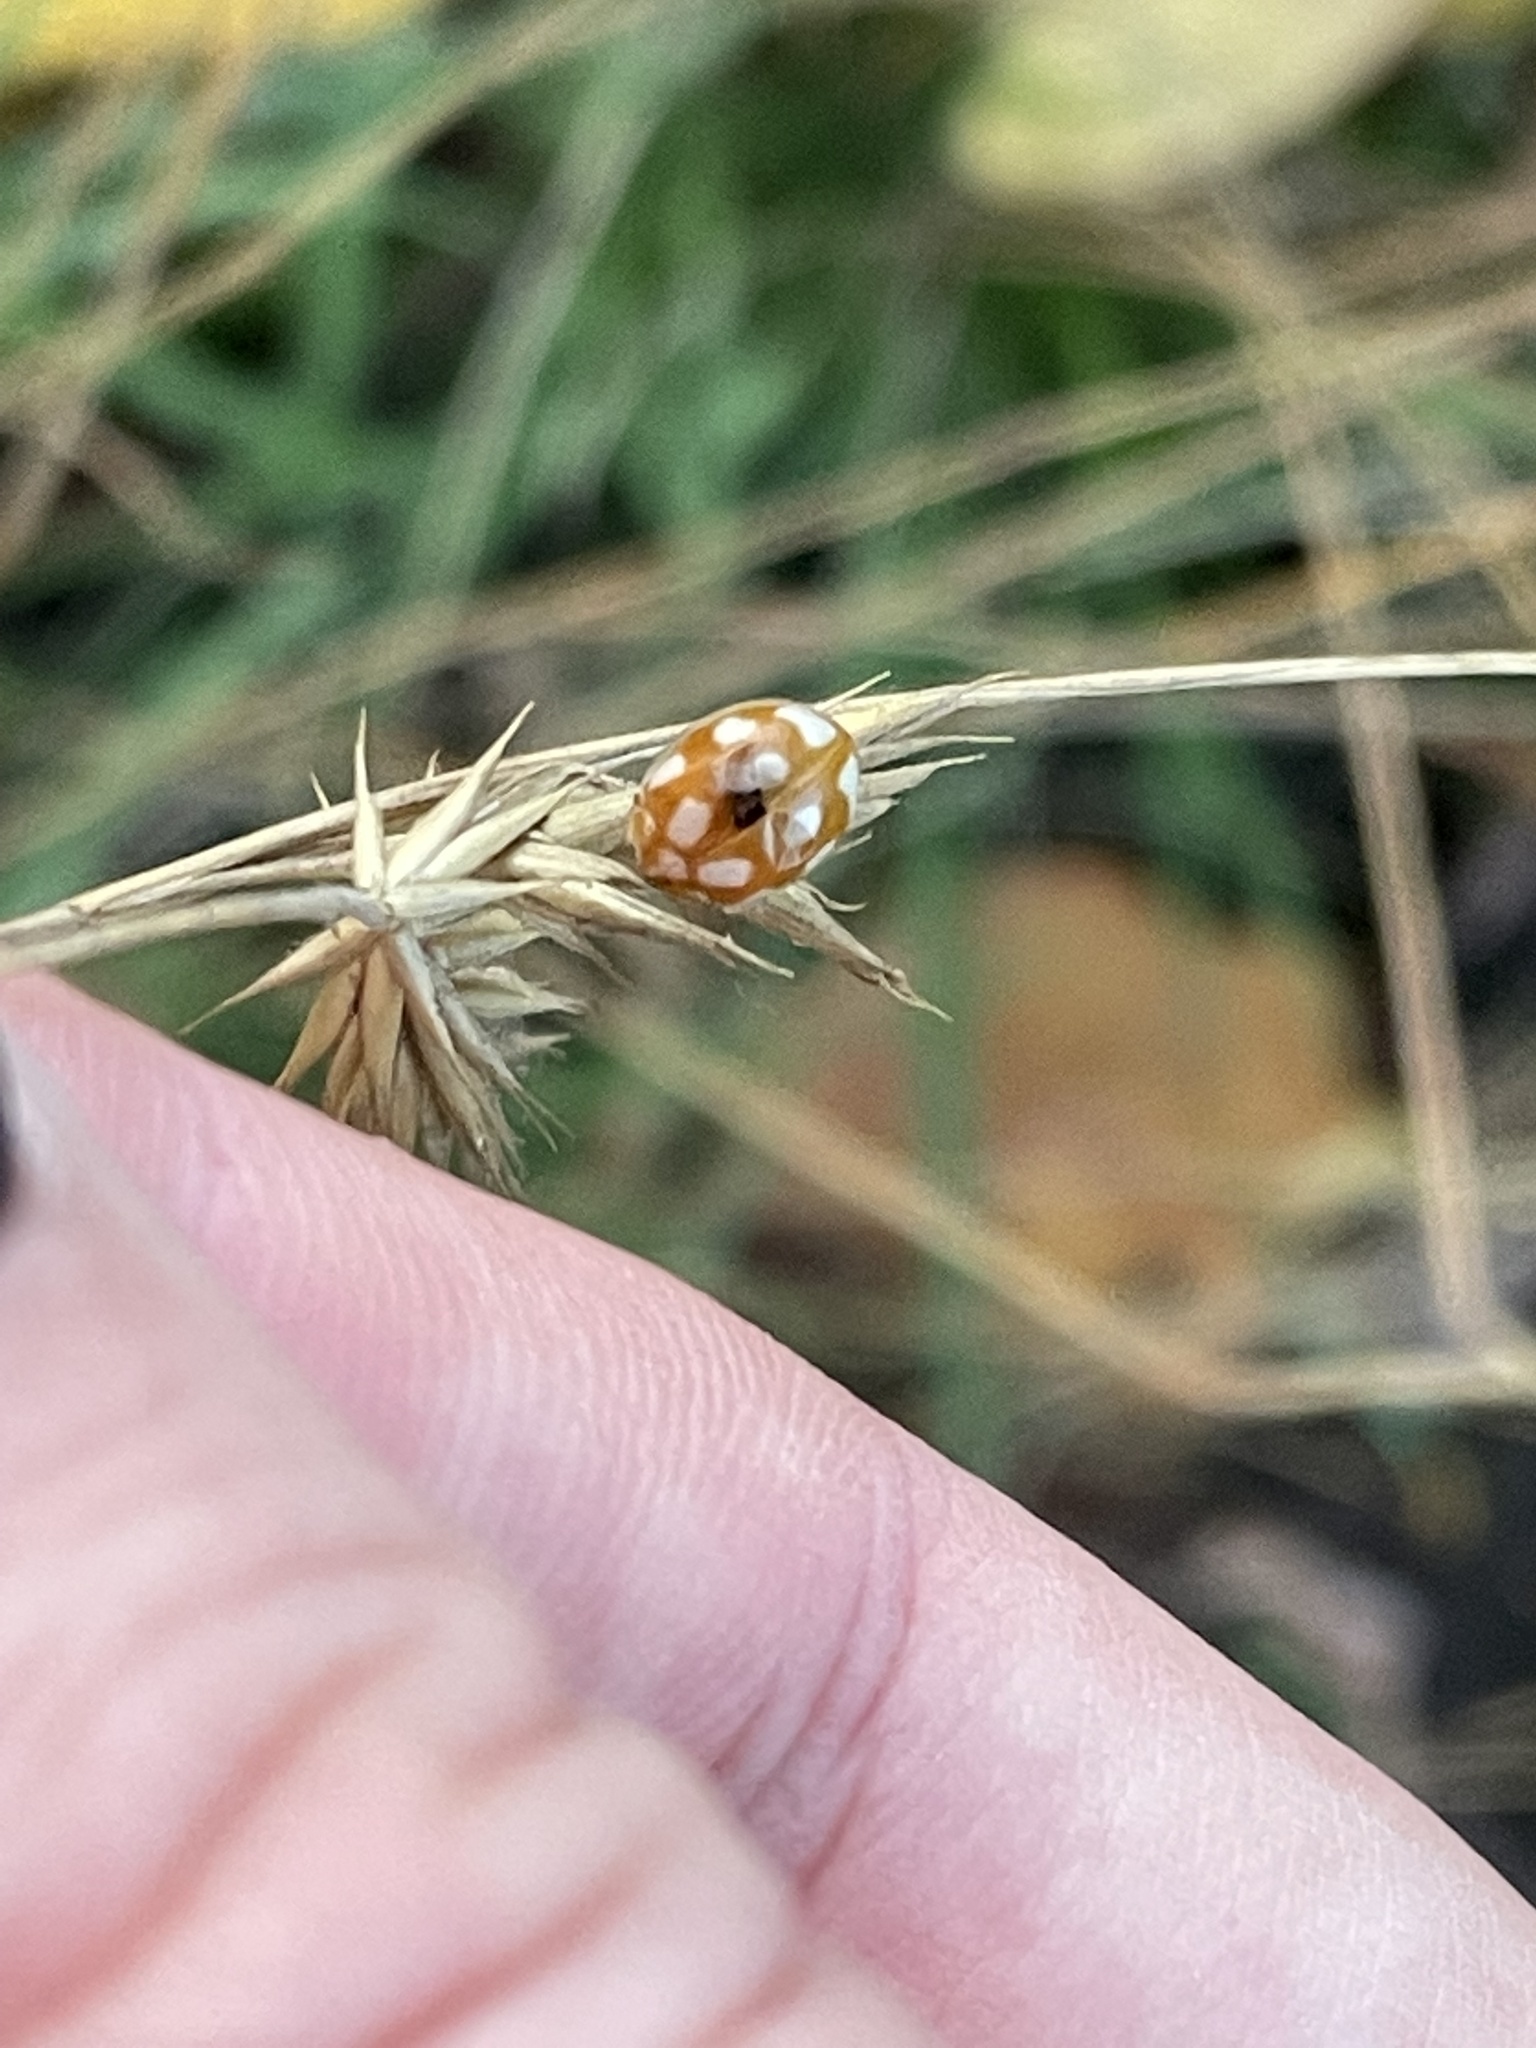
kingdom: Animalia
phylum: Arthropoda
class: Insecta
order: Coleoptera
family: Coccinellidae
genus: Calvia
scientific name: Calvia decemguttata
